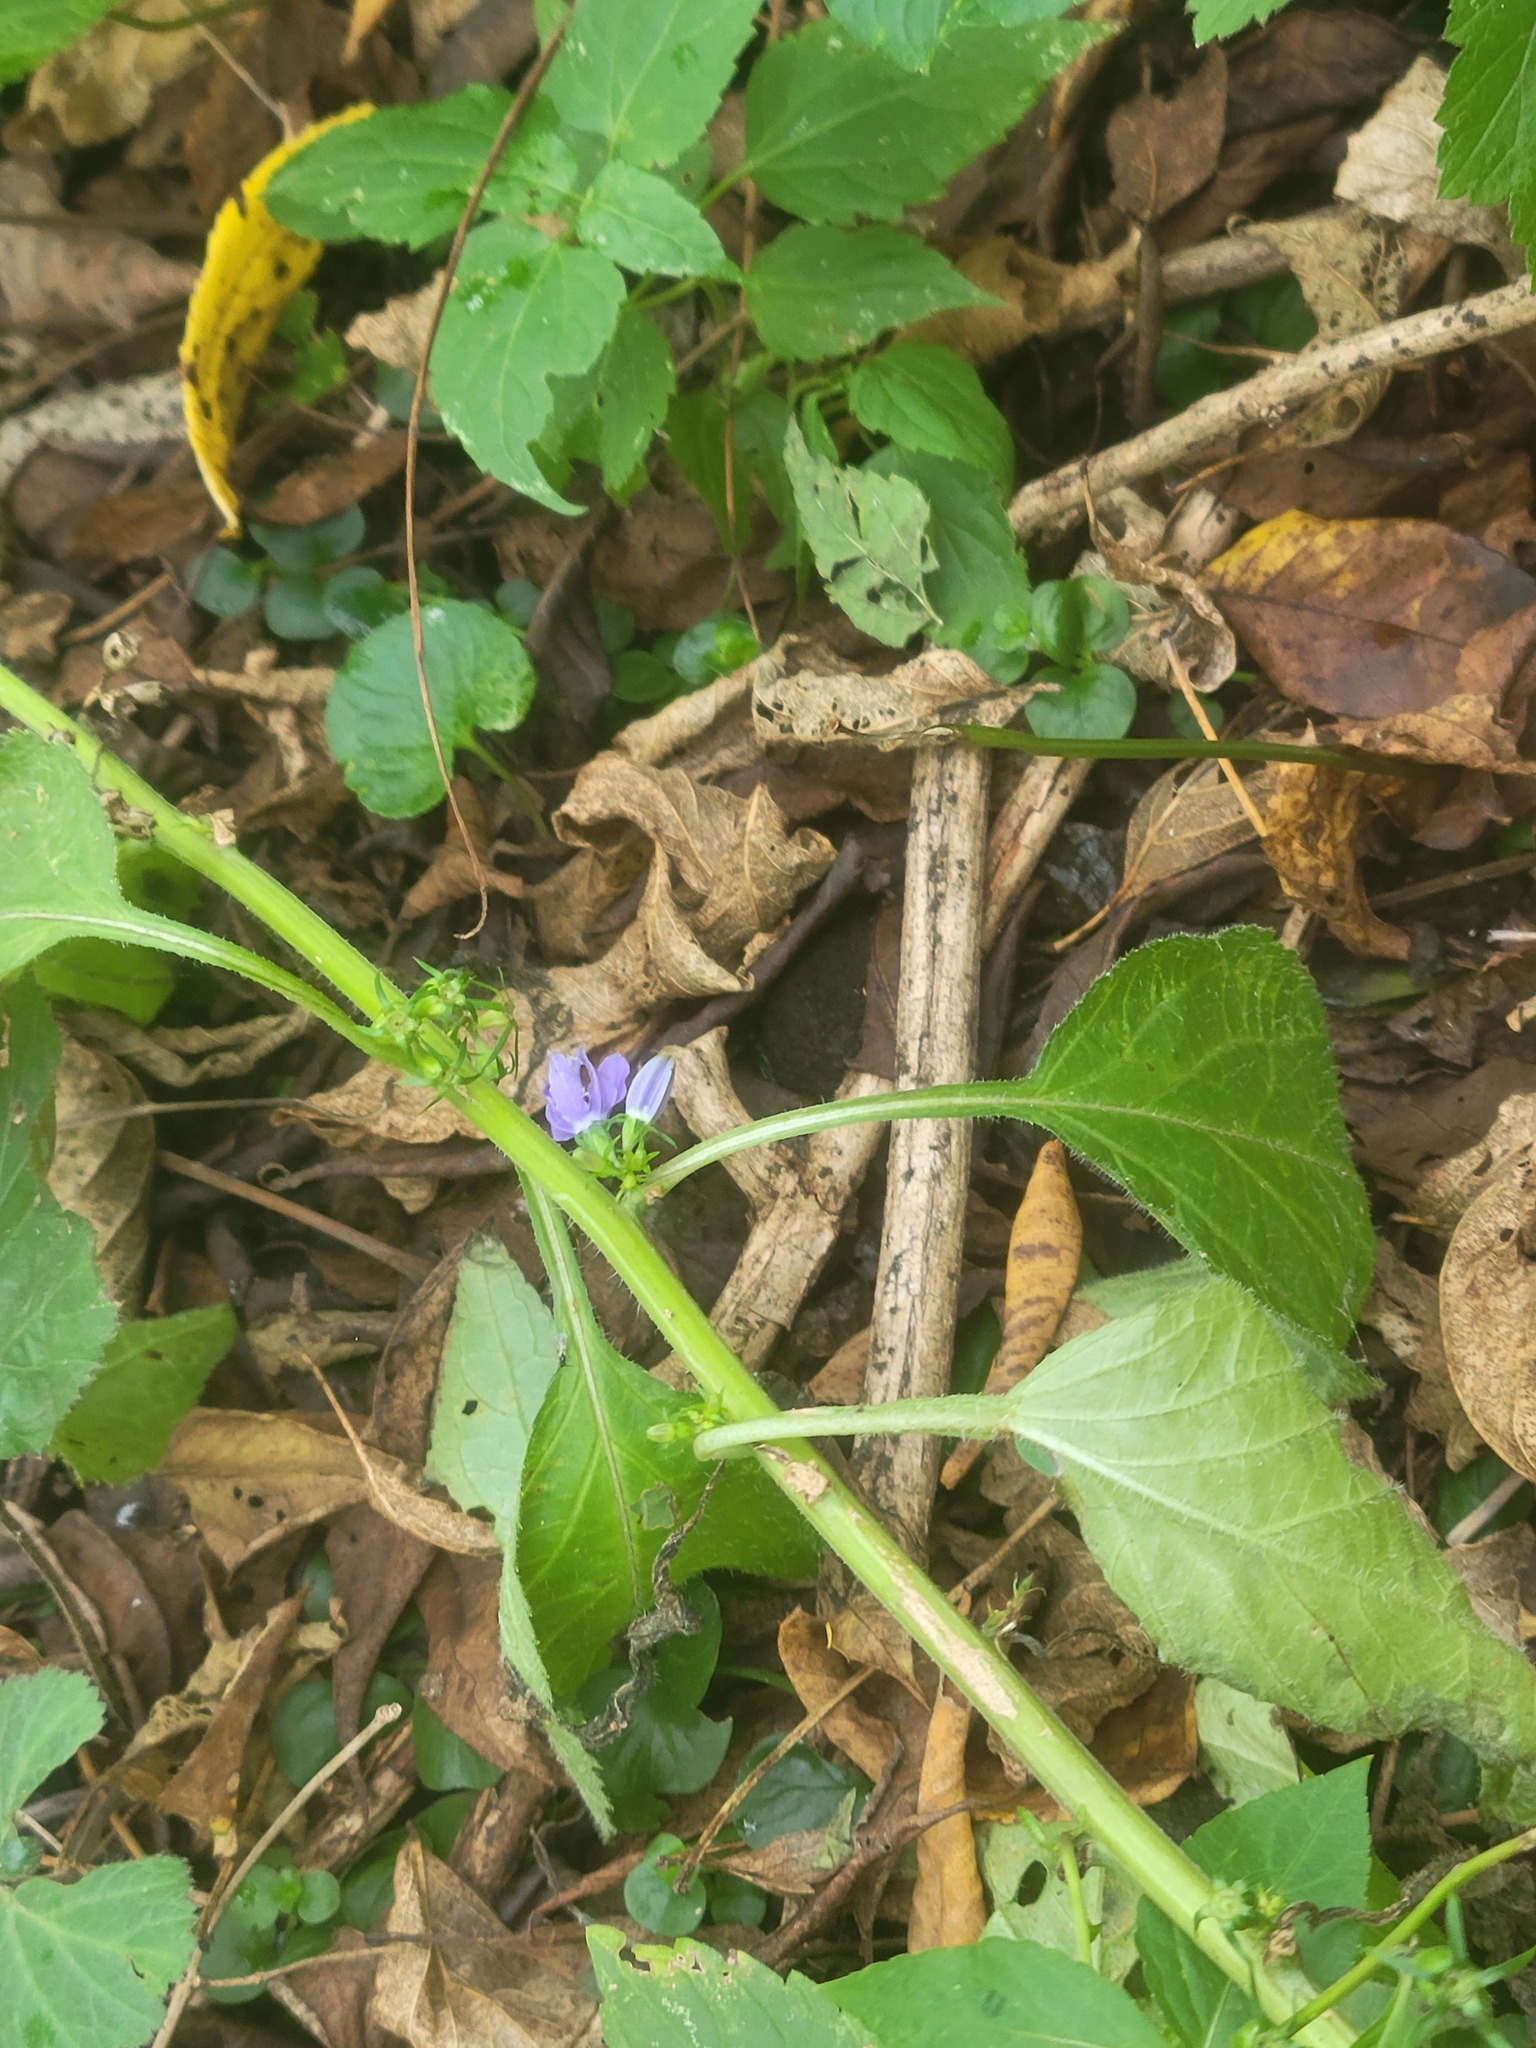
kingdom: Plantae
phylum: Tracheophyta
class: Magnoliopsida
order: Asterales
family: Campanulaceae
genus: Campanulastrum
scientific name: Campanulastrum americanum
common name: American bellflower
